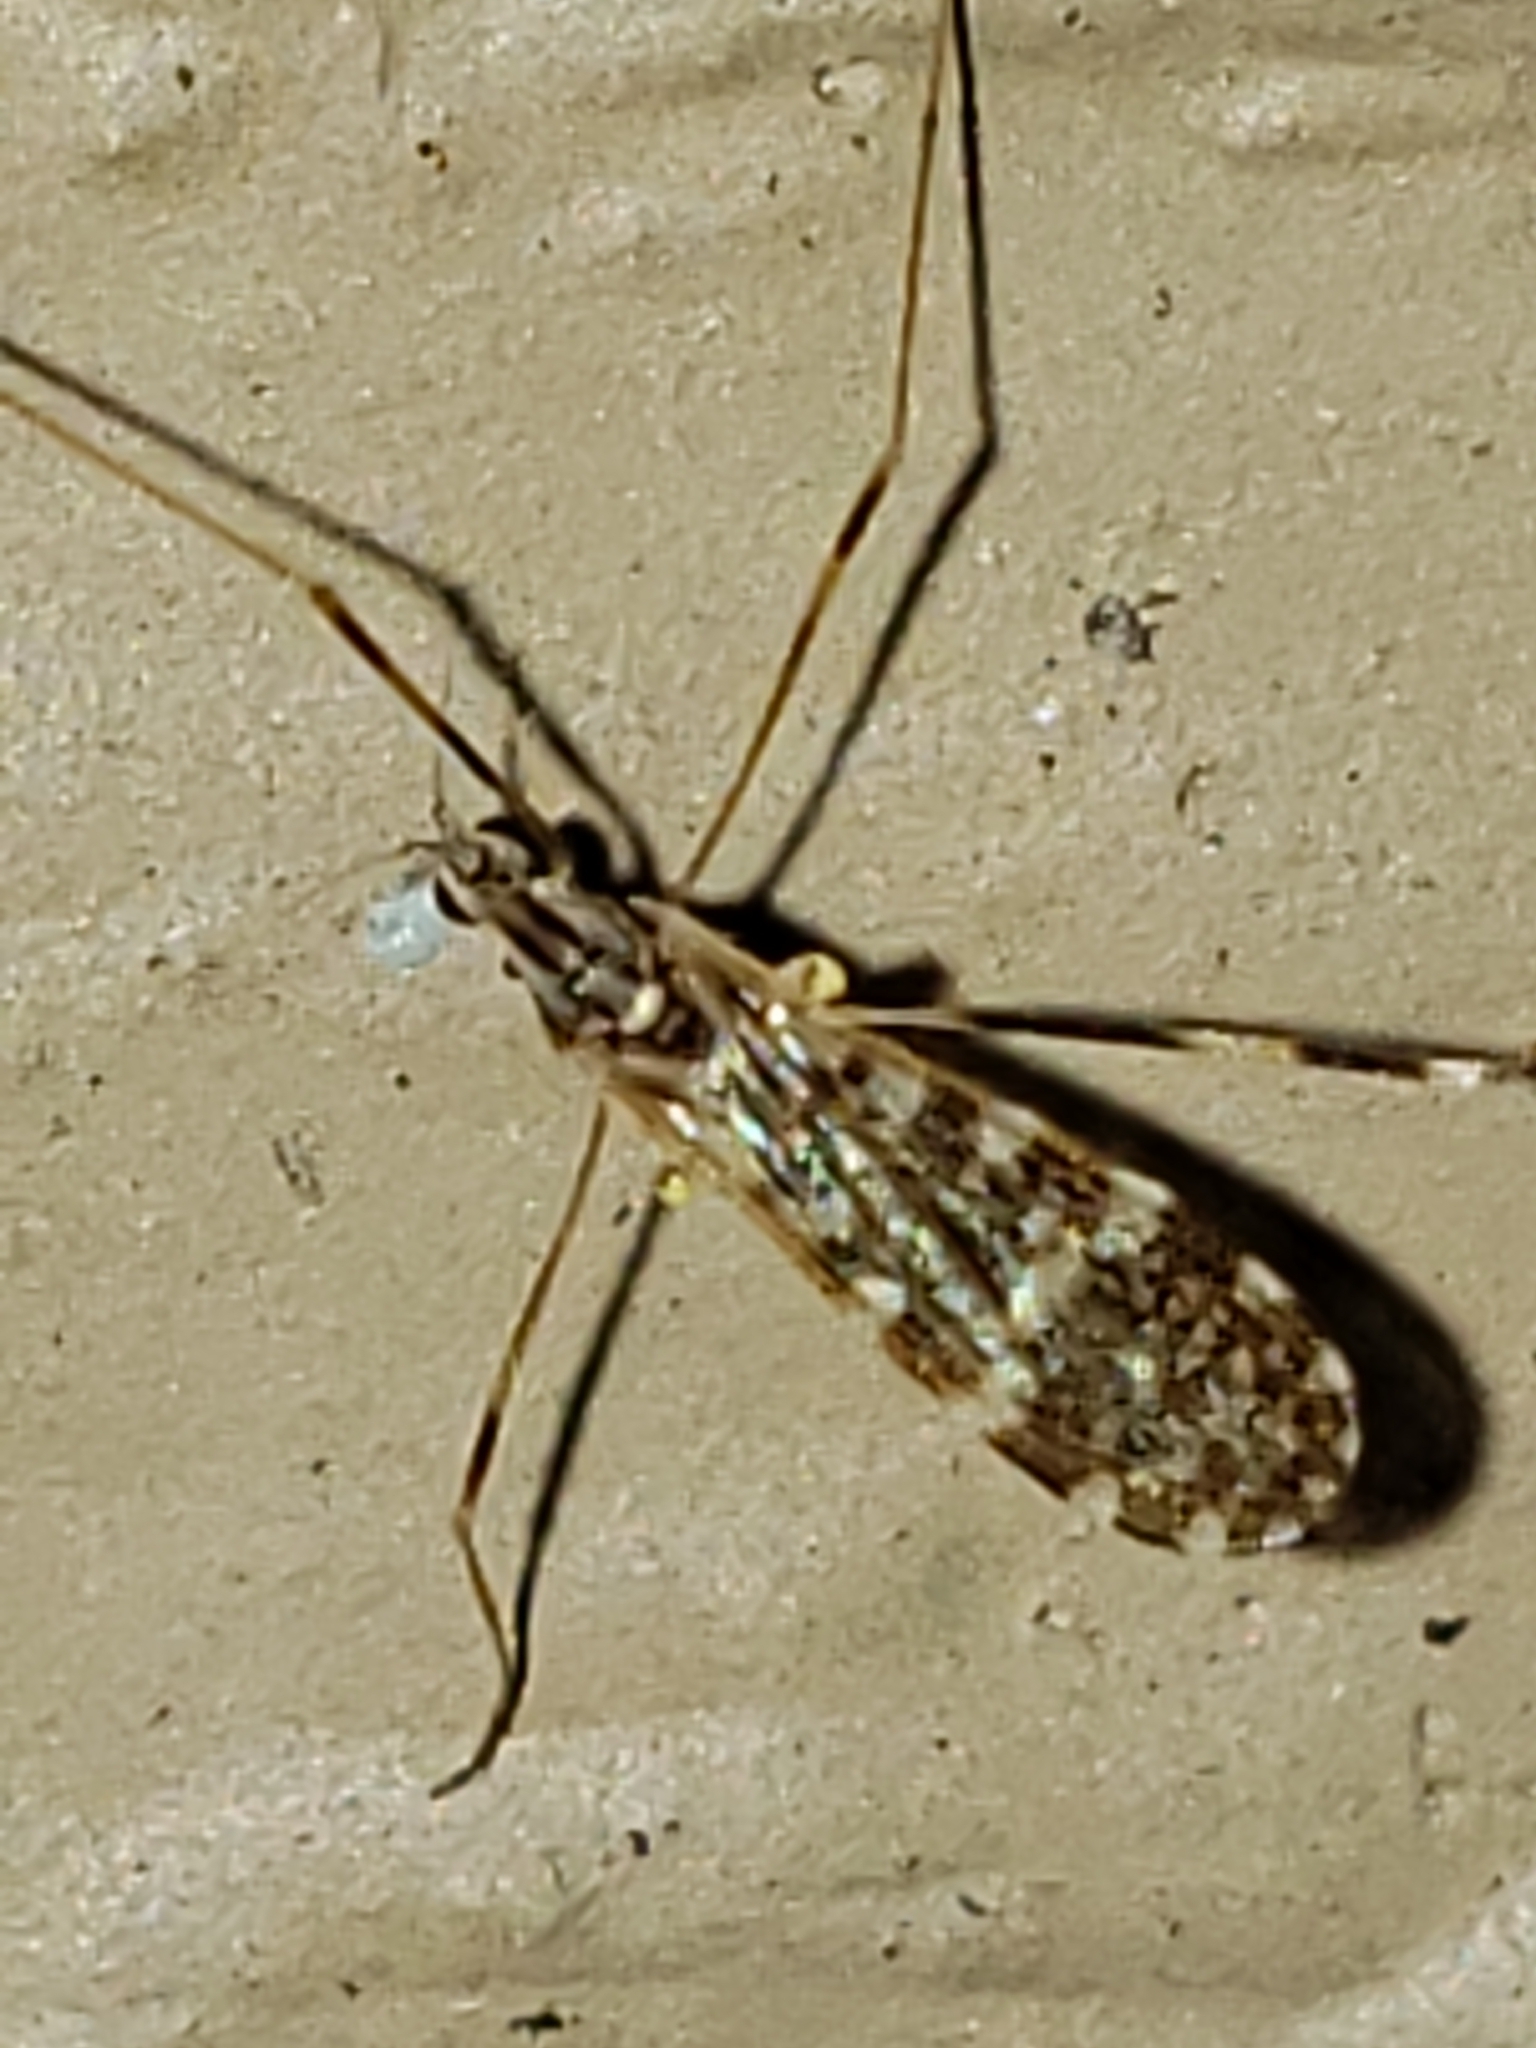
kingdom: Animalia
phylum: Arthropoda
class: Insecta
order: Diptera
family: Limoniidae
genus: Erioptera
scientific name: Erioptera caliptera
